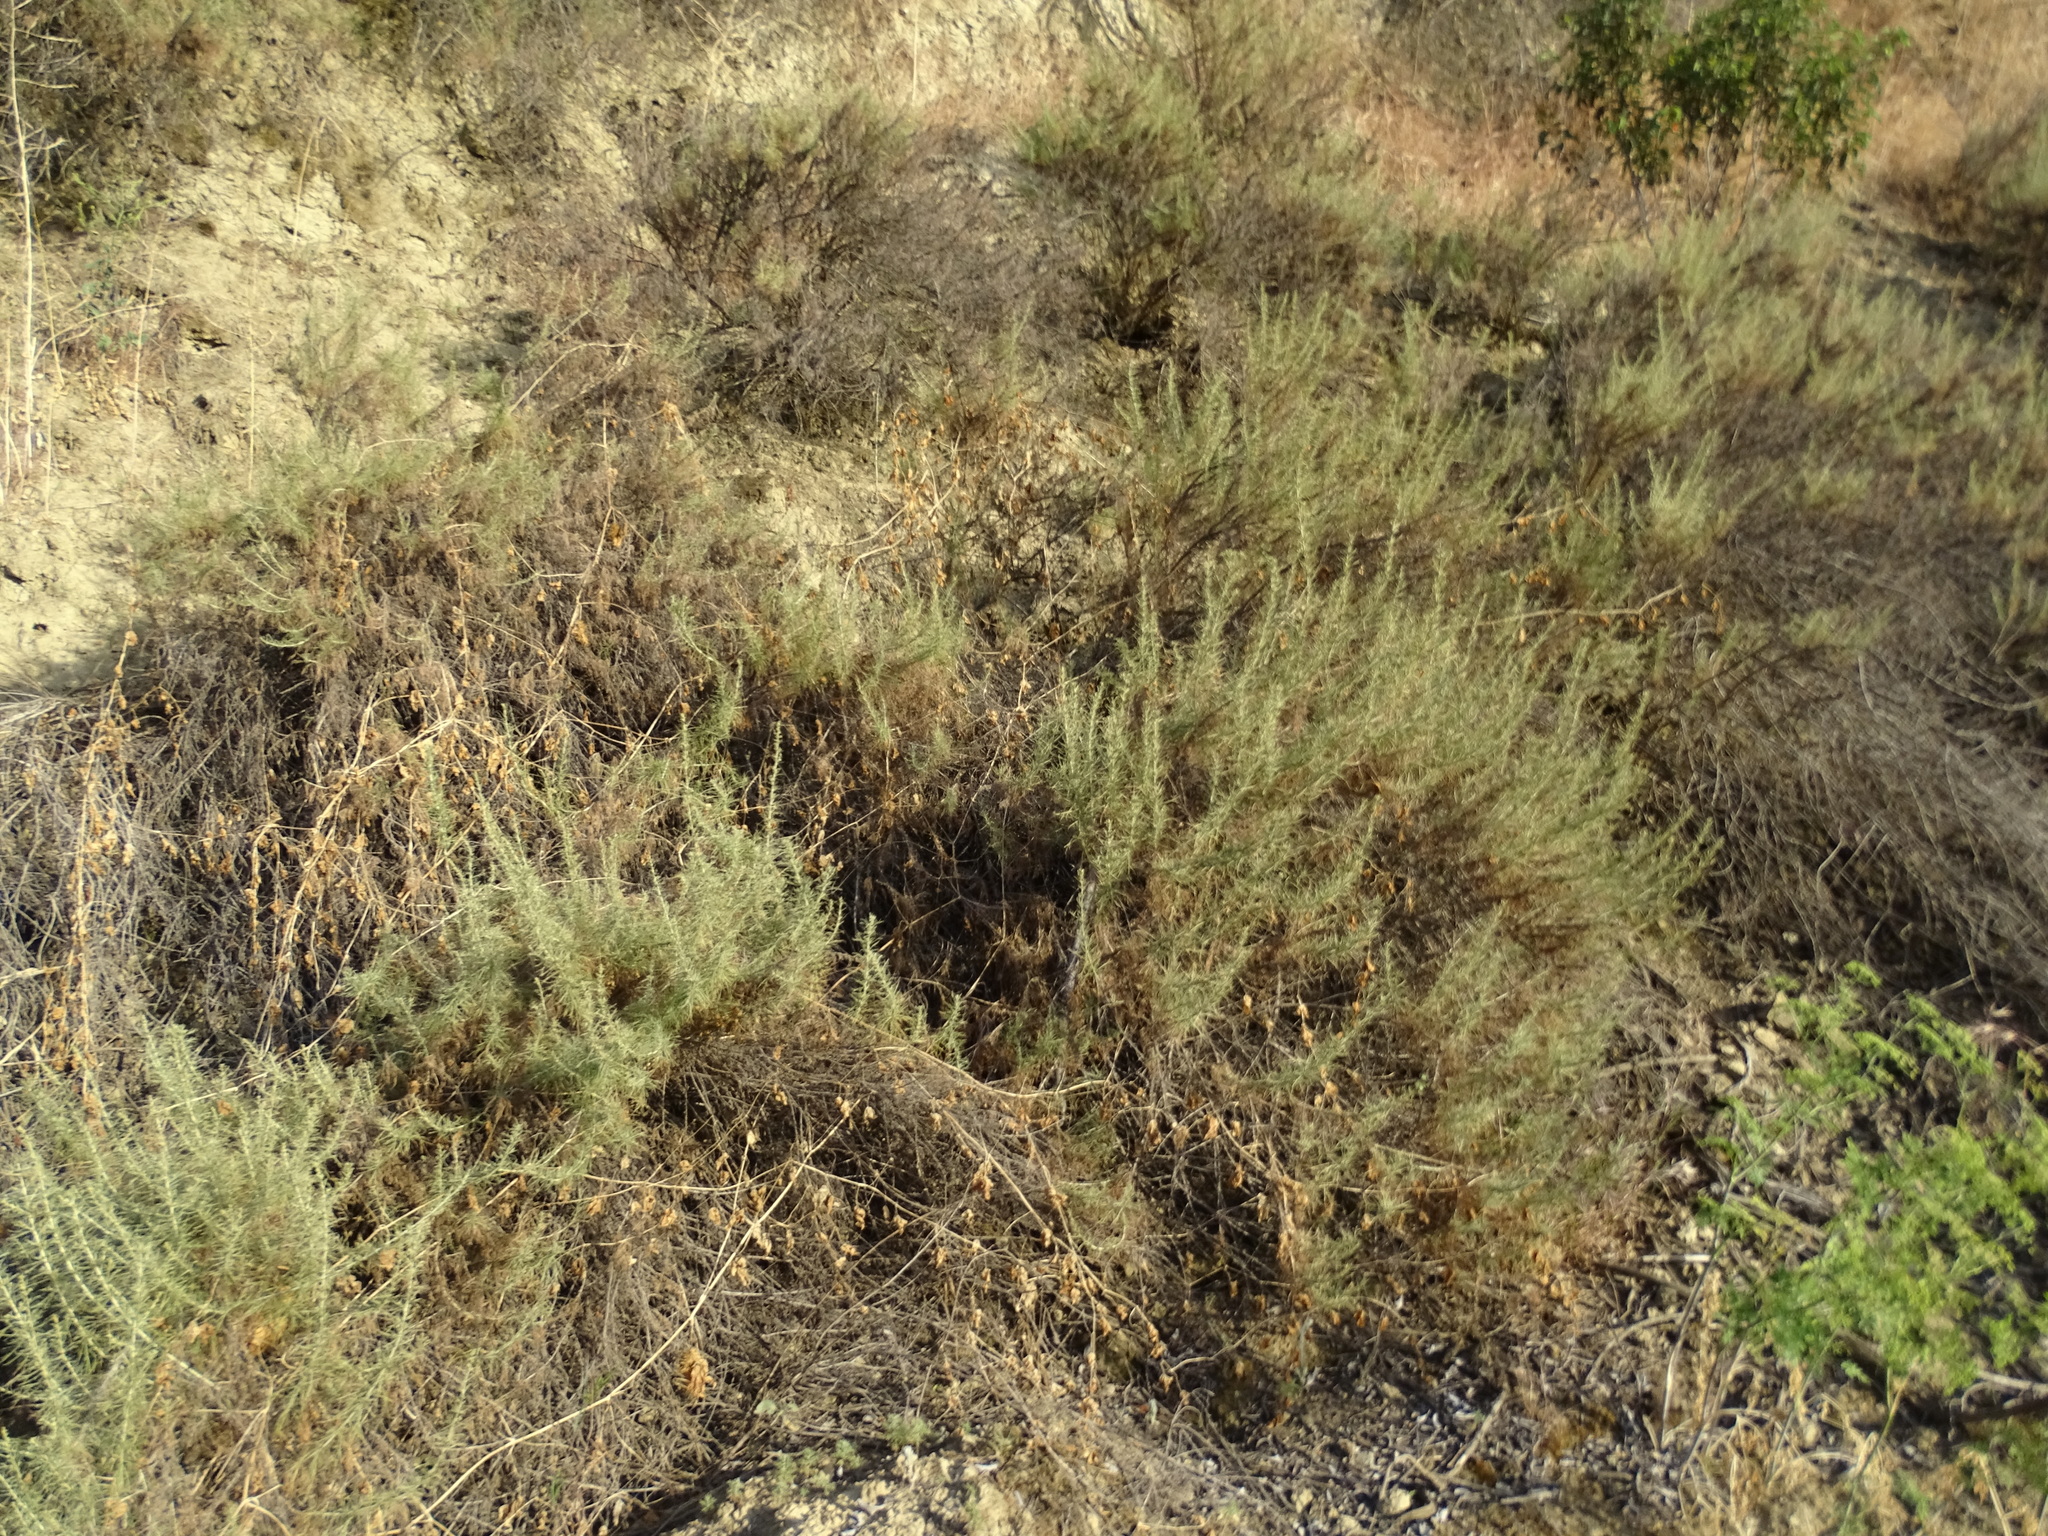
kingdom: Plantae
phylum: Tracheophyta
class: Magnoliopsida
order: Asterales
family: Asteraceae
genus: Artemisia
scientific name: Artemisia californica
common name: California sagebrush
